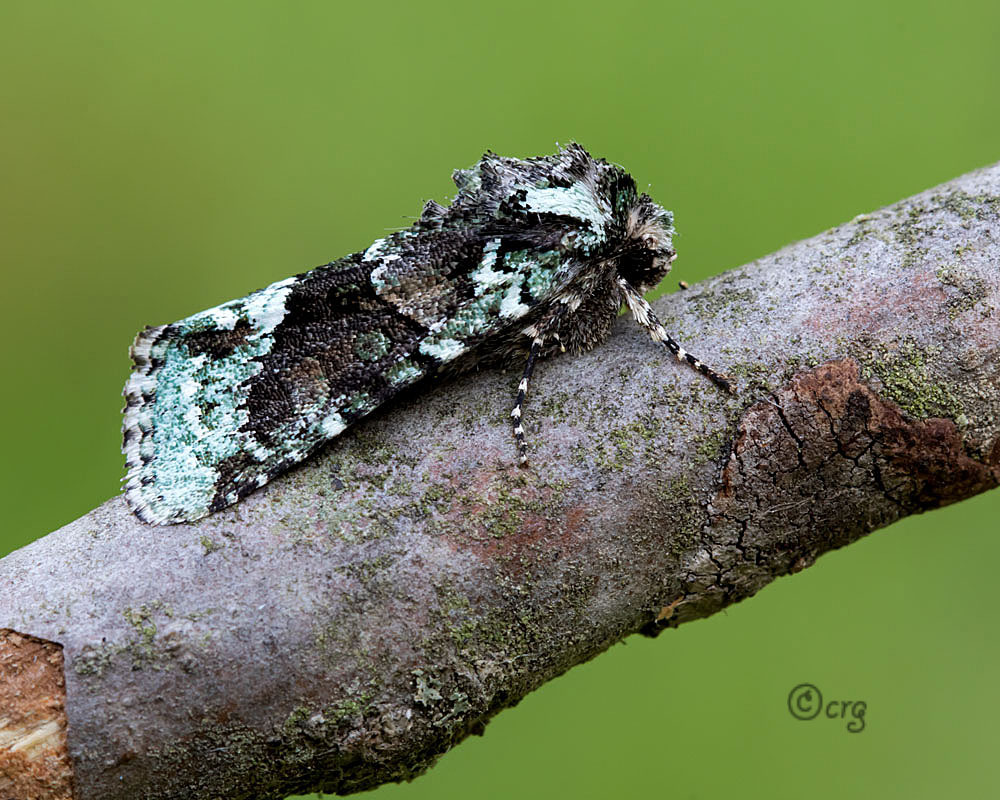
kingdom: Animalia
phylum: Arthropoda
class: Insecta
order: Lepidoptera
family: Noctuidae
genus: Lacinipolia
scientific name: Lacinipolia explicata
